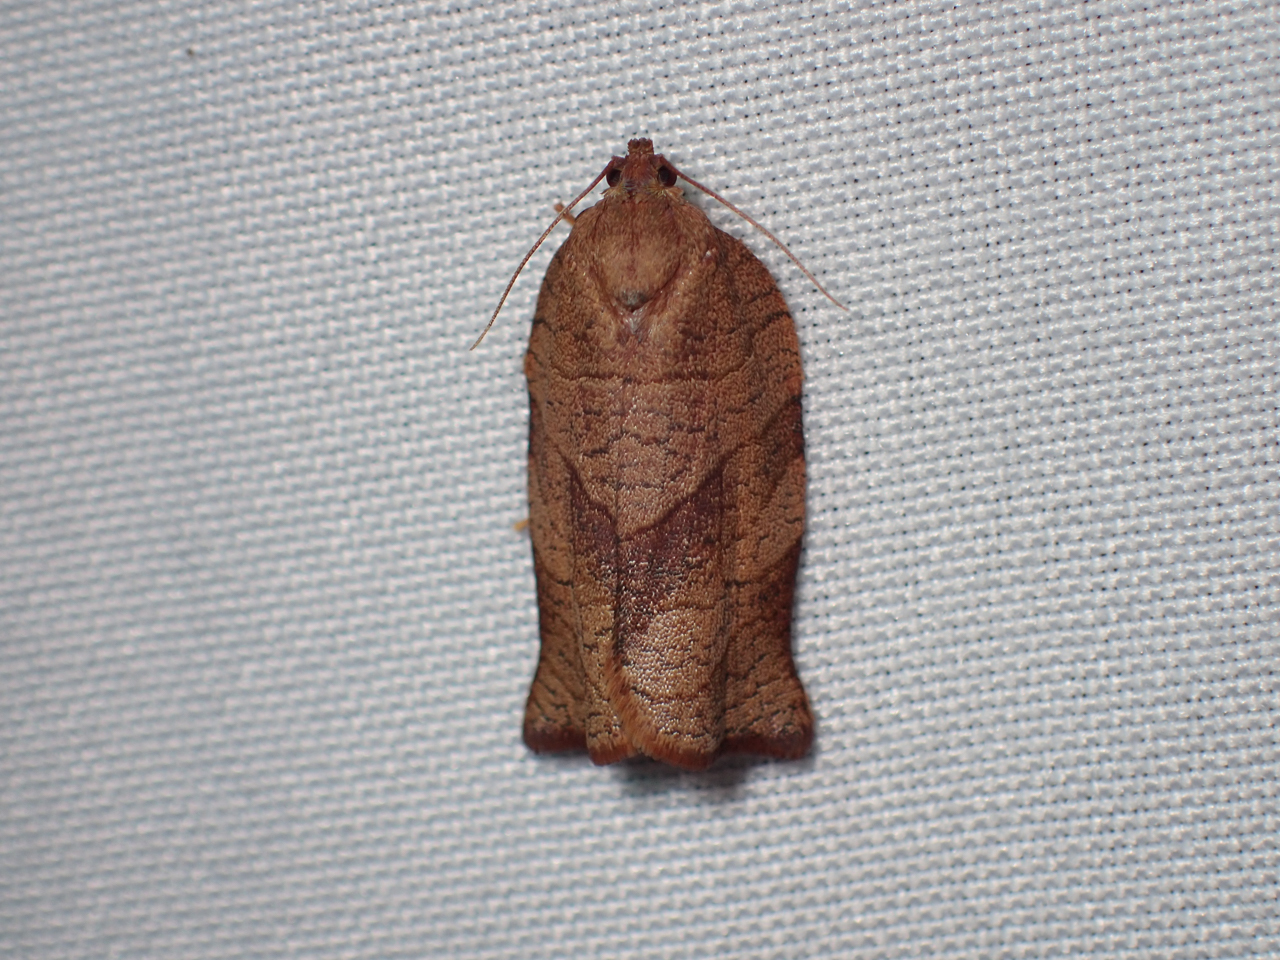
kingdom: Animalia
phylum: Arthropoda
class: Insecta
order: Lepidoptera
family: Tortricidae
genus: Choristoneura
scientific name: Choristoneura rosaceana
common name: Oblique-banded leafroller moth
